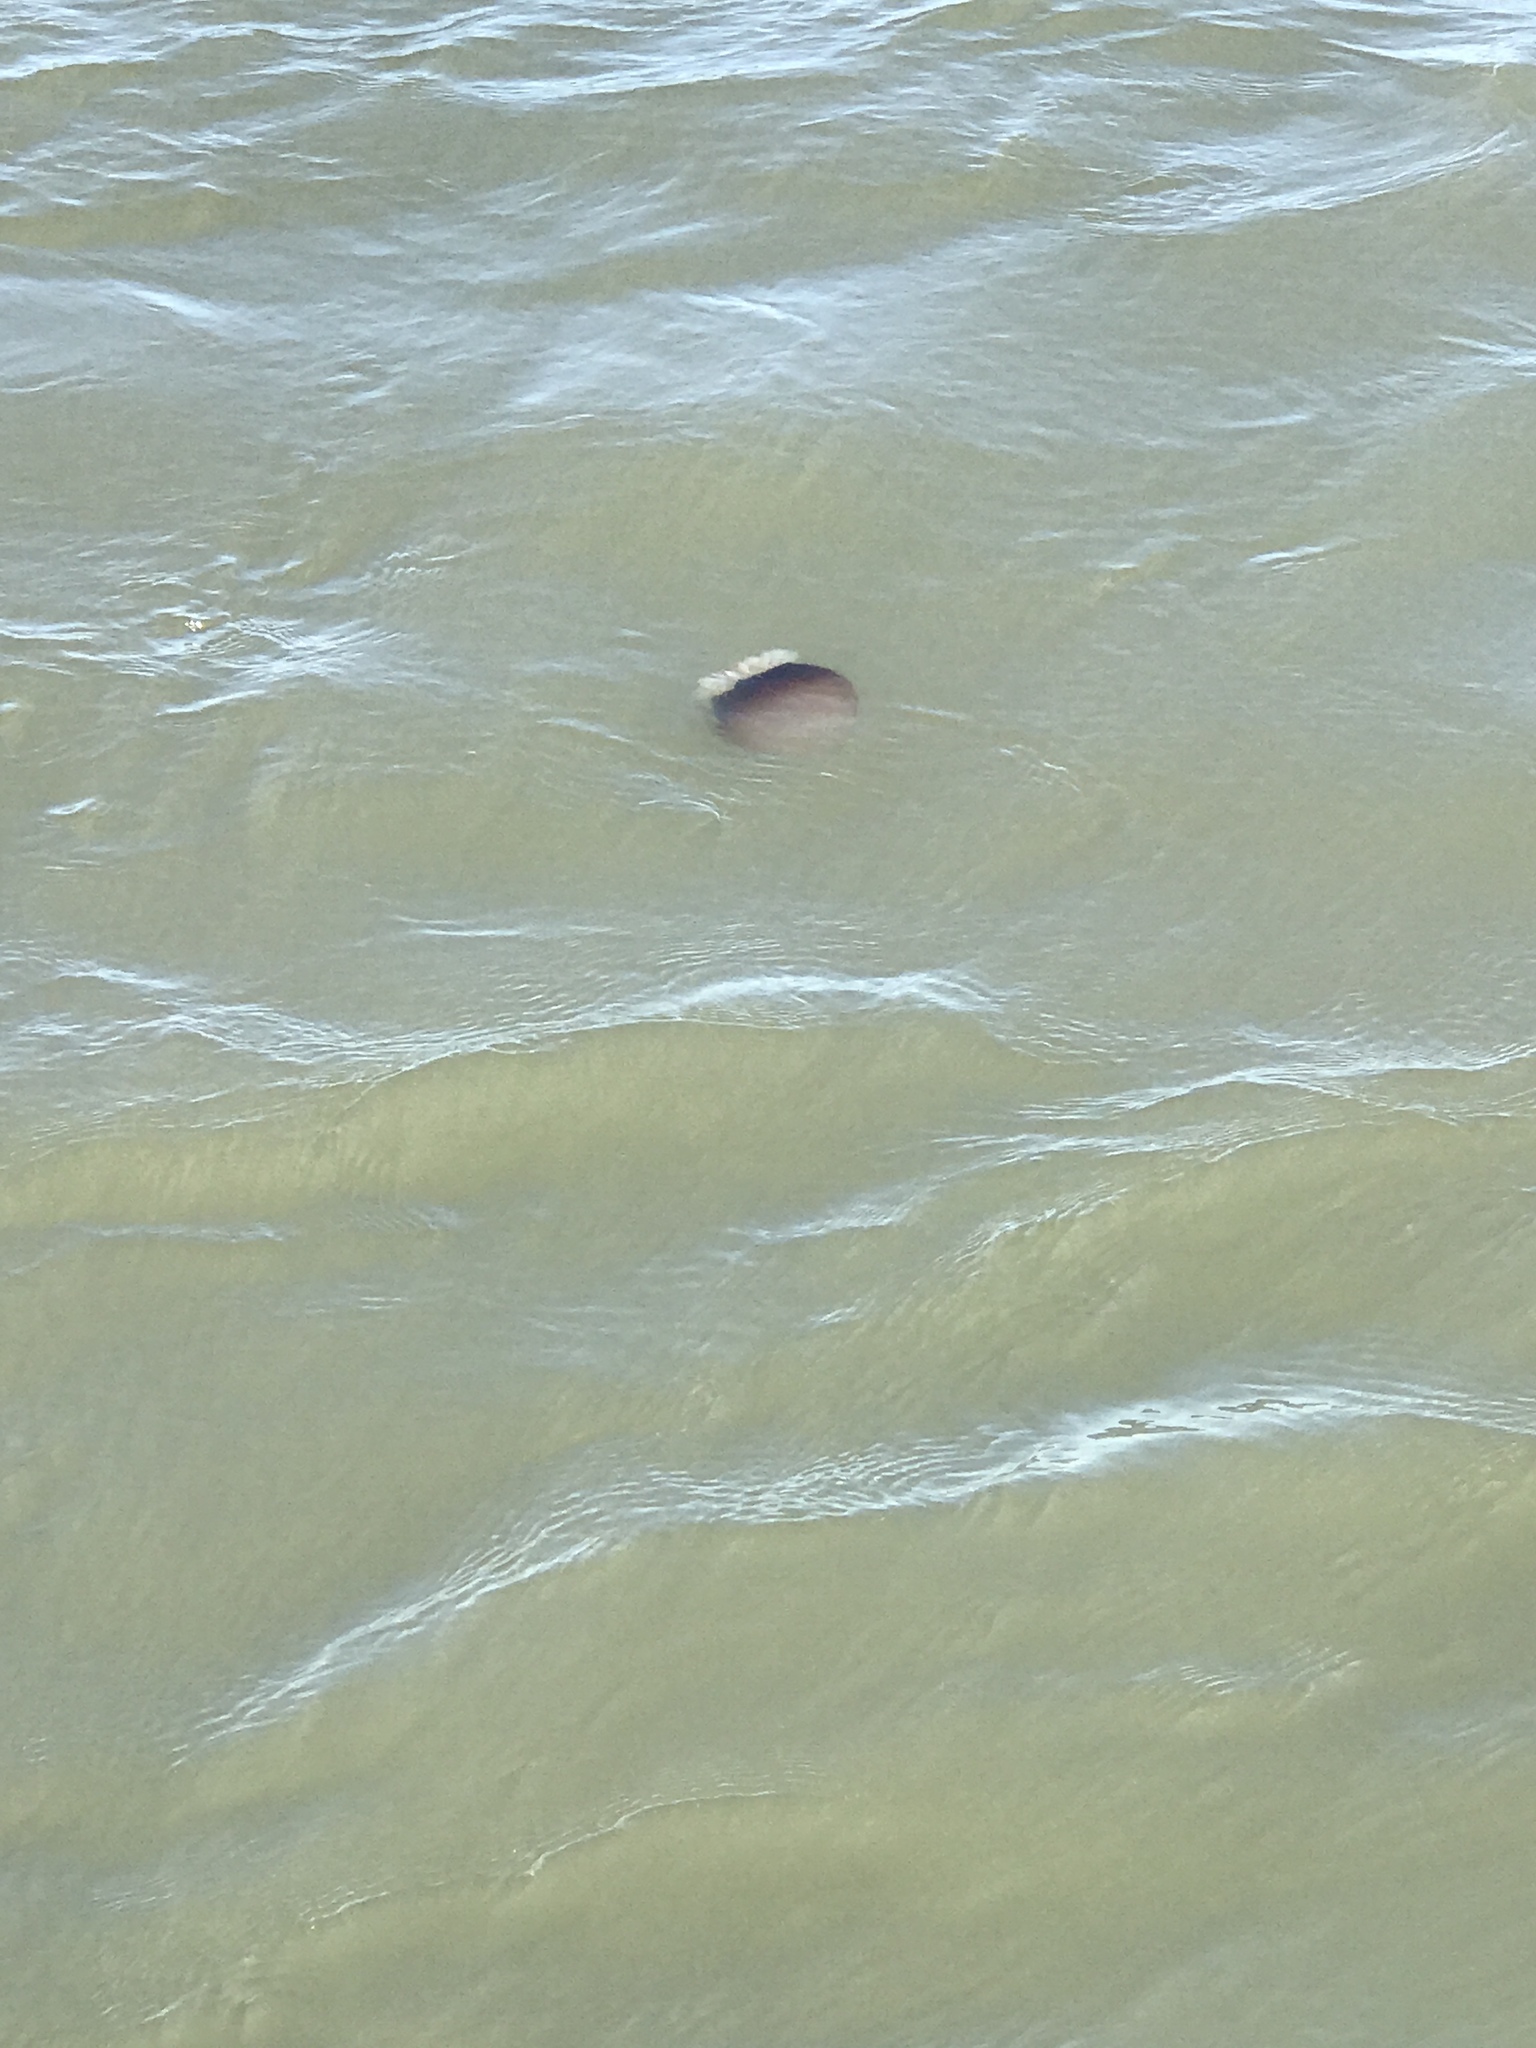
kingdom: Animalia
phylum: Cnidaria
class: Scyphozoa
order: Rhizostomeae
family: Stomolophidae
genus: Stomolophus
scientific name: Stomolophus meleagris
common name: Cabbagehead
